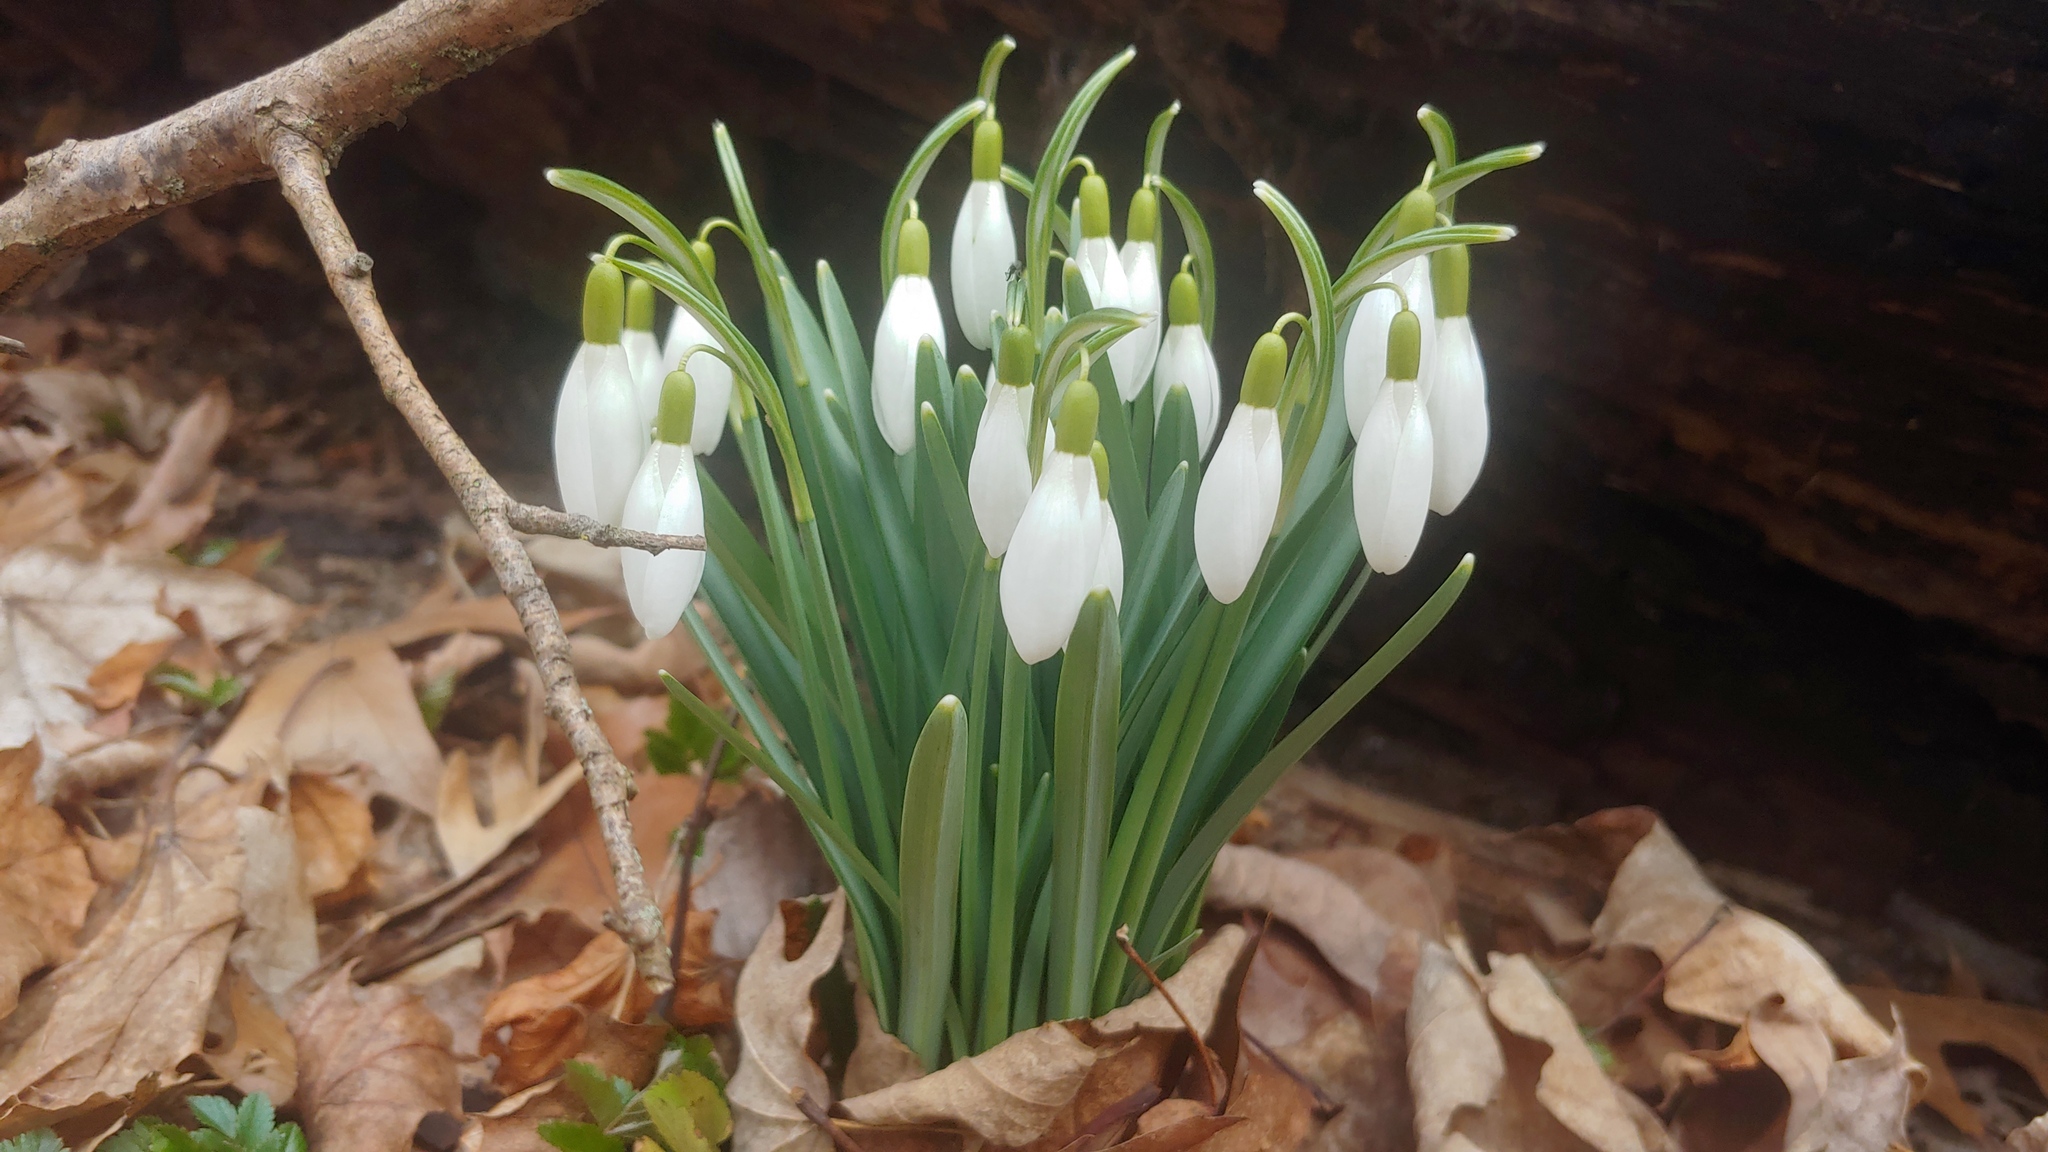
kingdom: Plantae
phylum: Tracheophyta
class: Liliopsida
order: Asparagales
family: Amaryllidaceae
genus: Galanthus
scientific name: Galanthus nivalis
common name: Snowdrop
